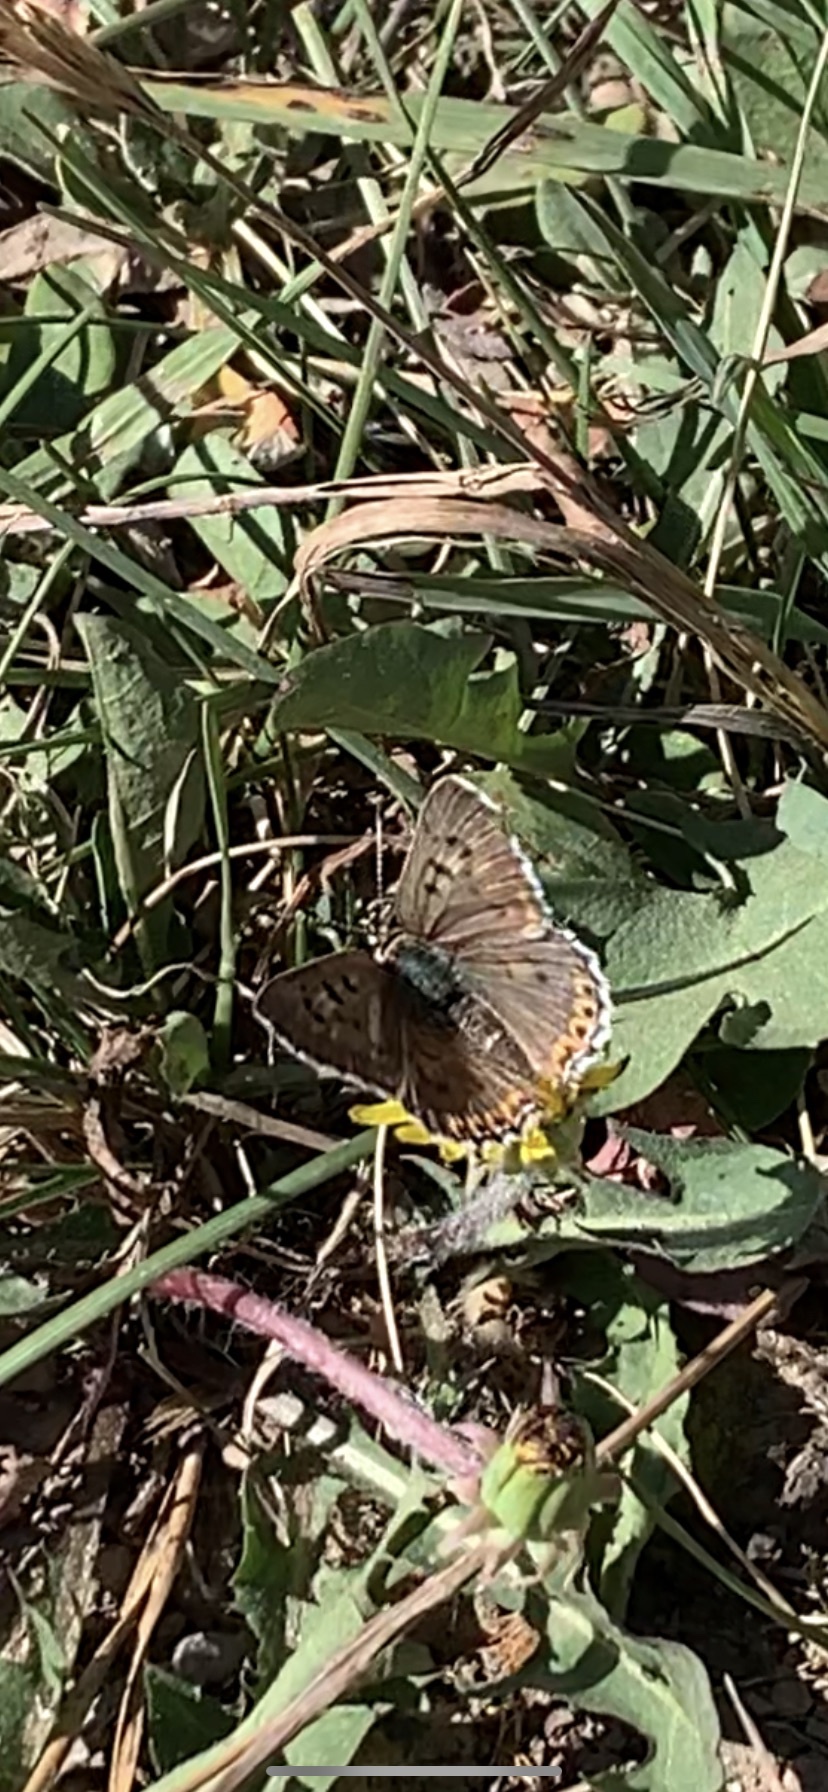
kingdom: Animalia
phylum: Arthropoda
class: Insecta
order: Lepidoptera
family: Lycaenidae
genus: Tharsalea
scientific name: Tharsalea editha
